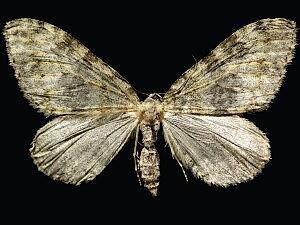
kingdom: Animalia
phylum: Arthropoda
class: Insecta
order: Lepidoptera
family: Geometridae
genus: Entephria
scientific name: Entephria lagganata
